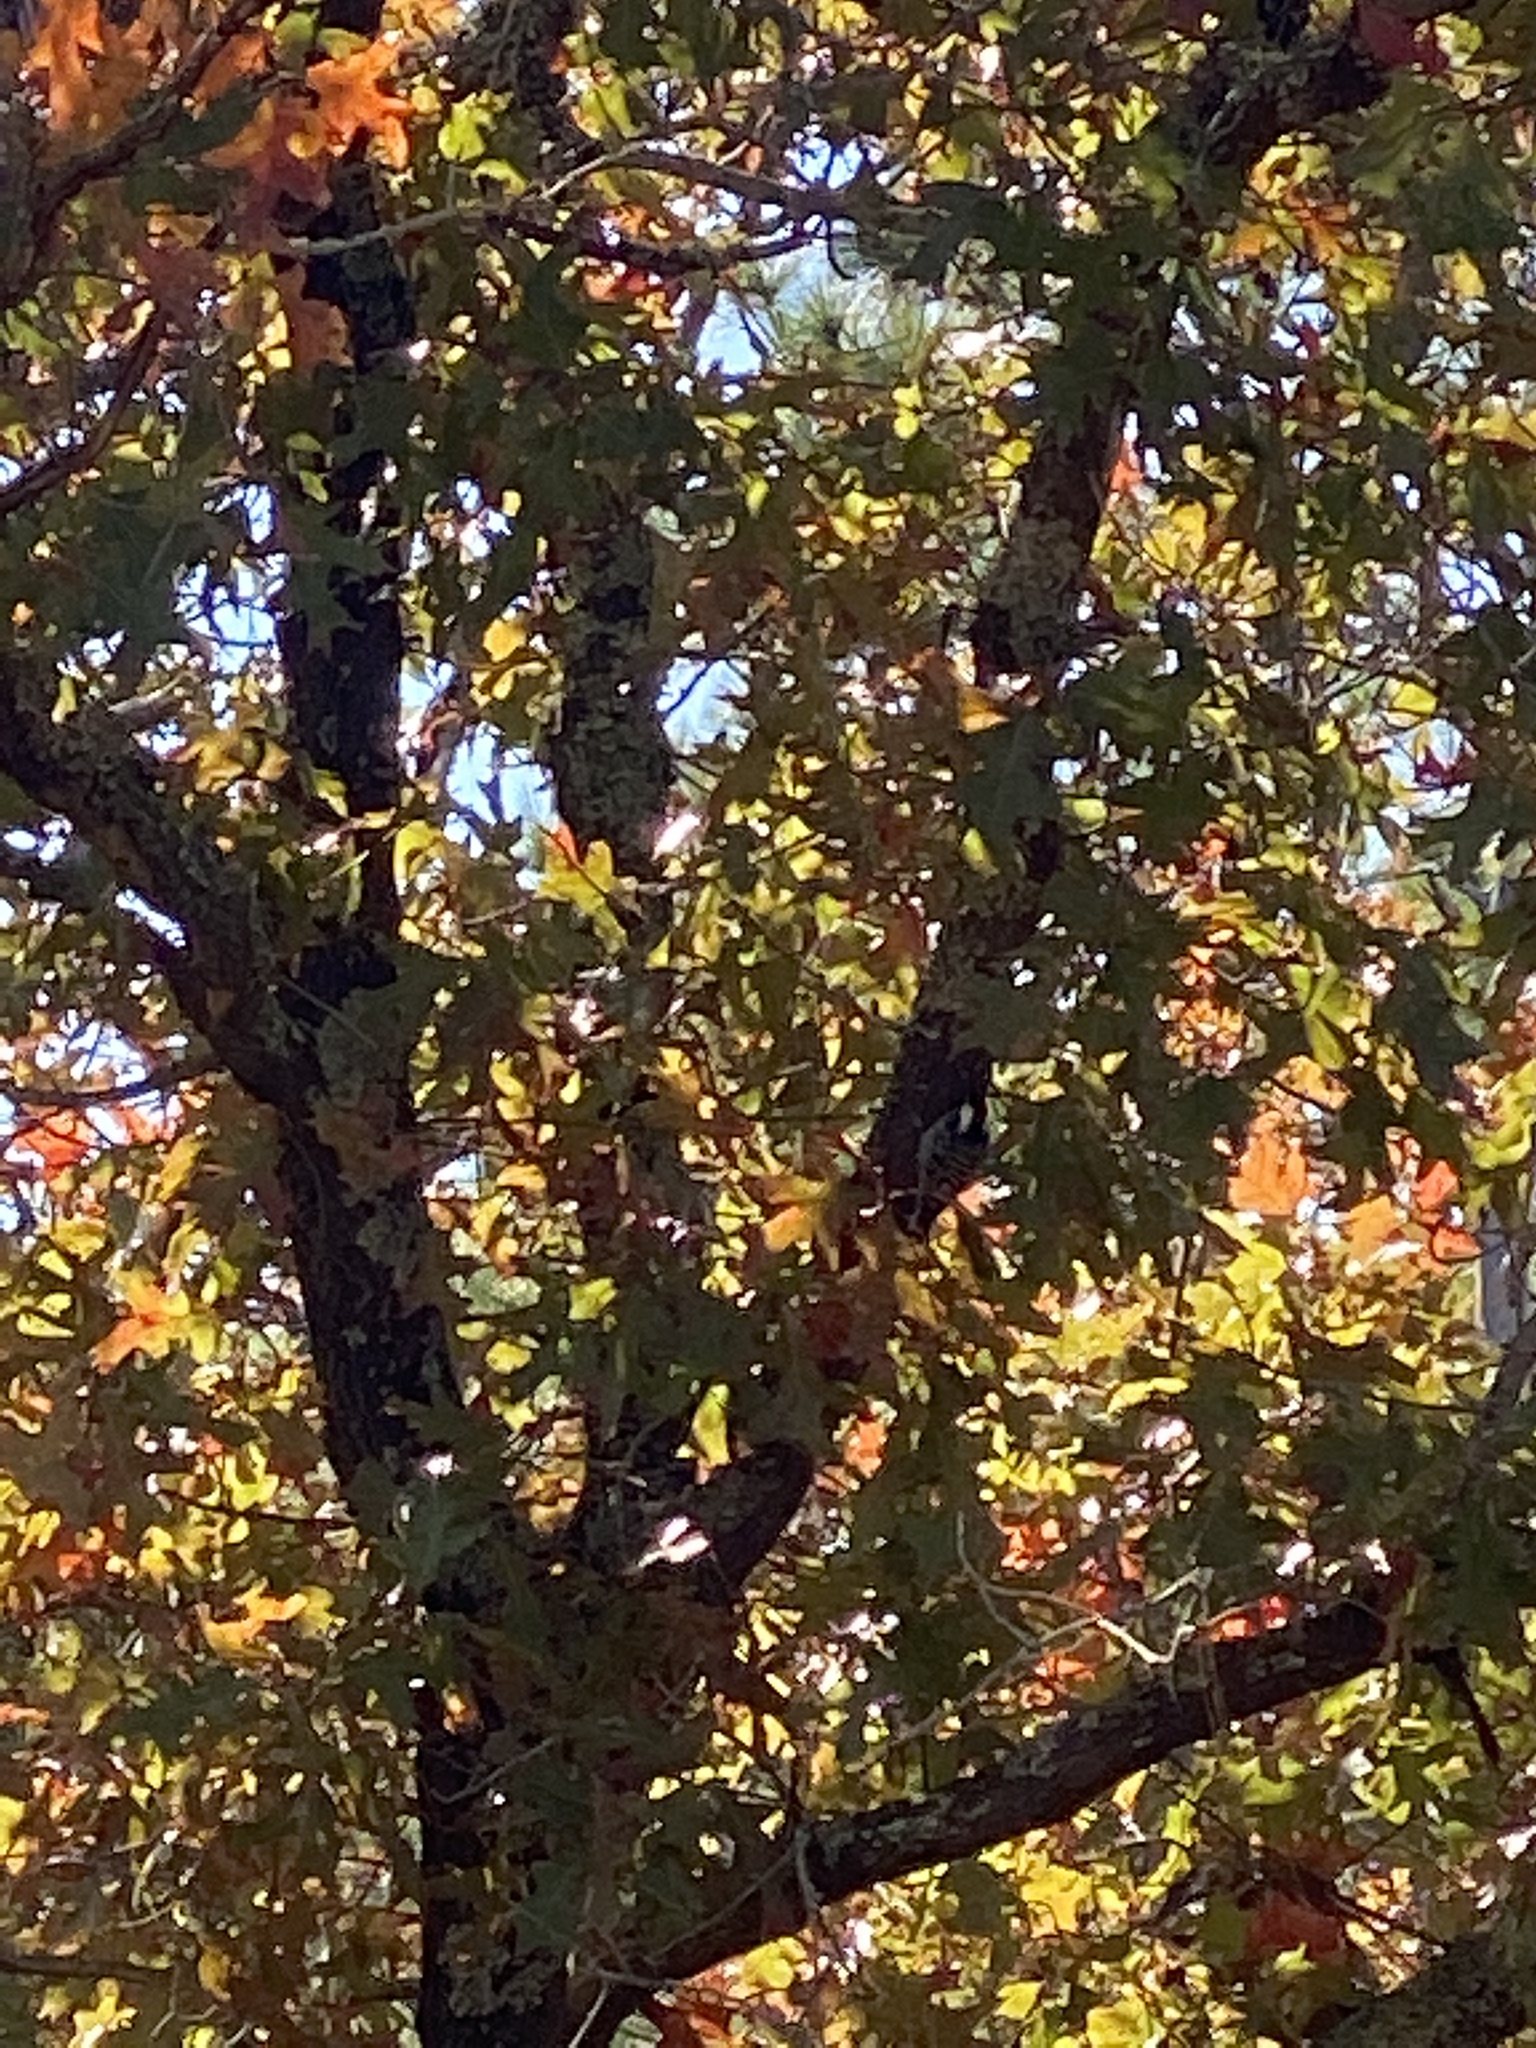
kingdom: Animalia
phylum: Chordata
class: Aves
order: Piciformes
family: Picidae
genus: Leuconotopicus
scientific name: Leuconotopicus borealis
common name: Red-cockaded woodpecker
